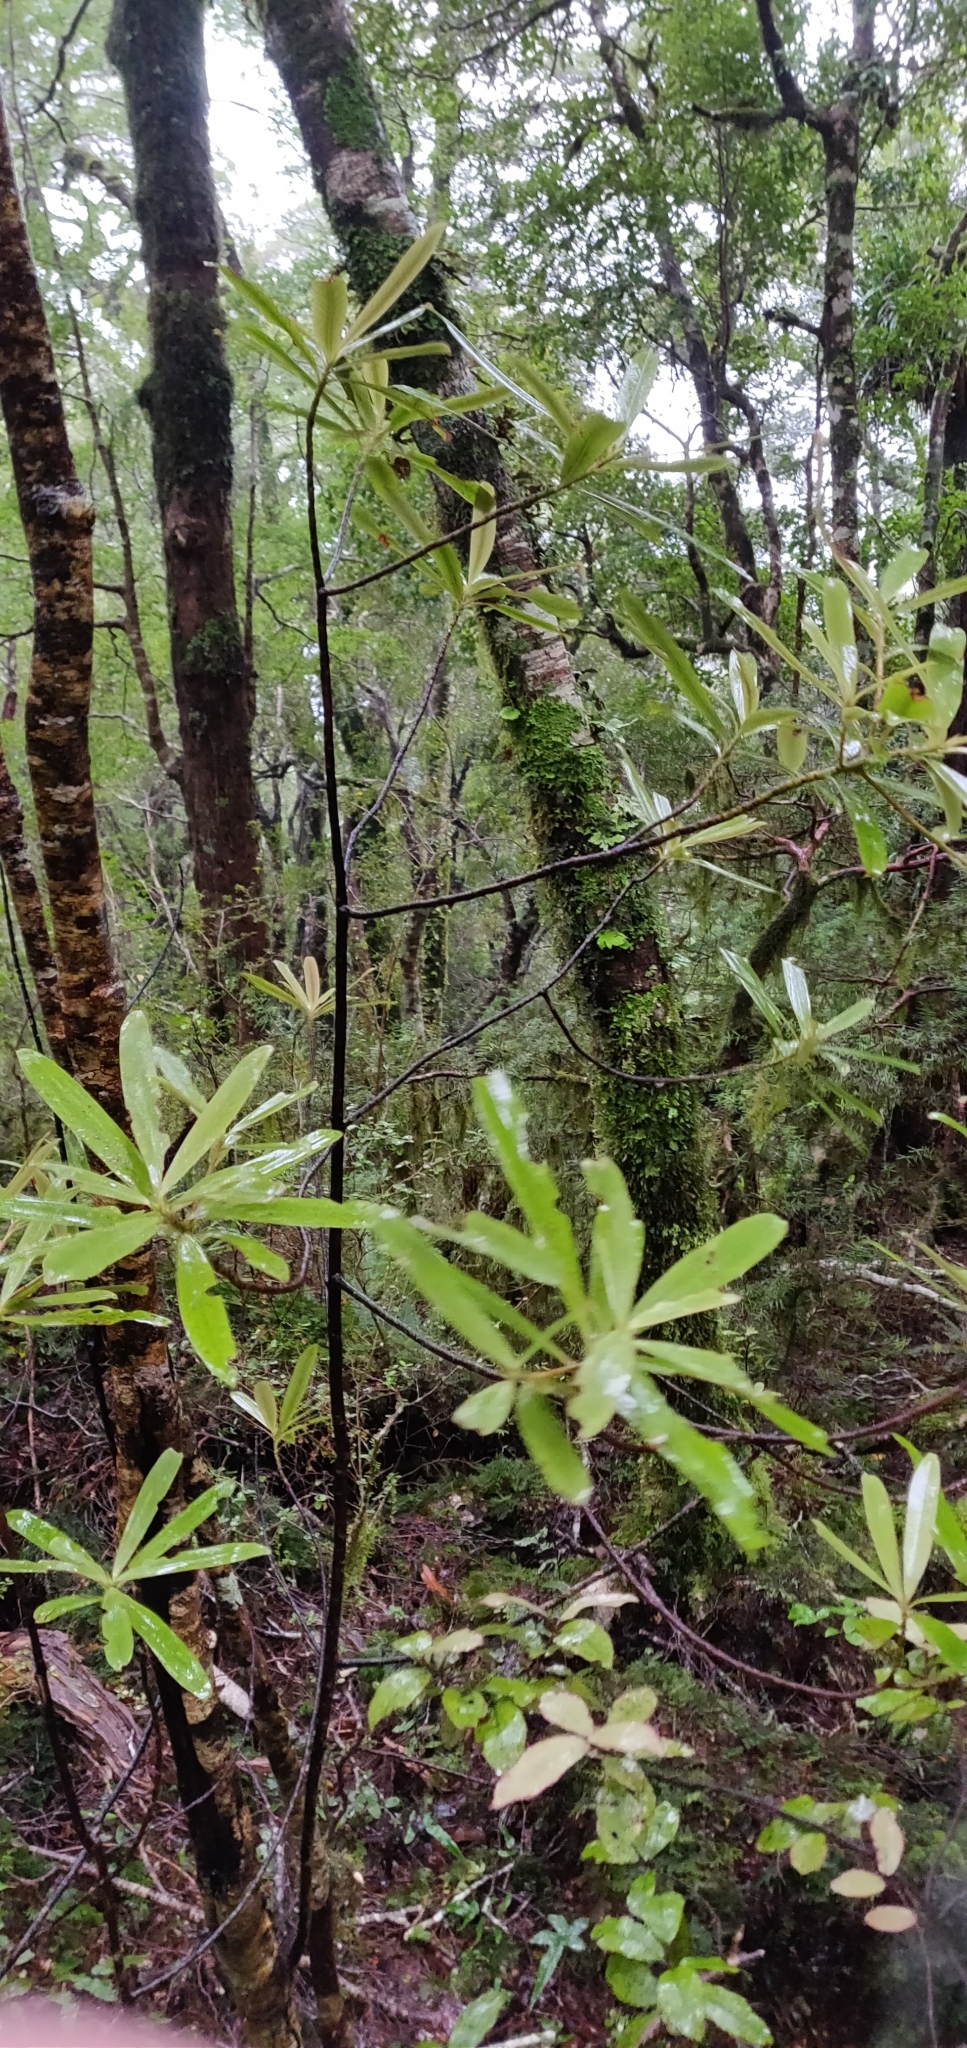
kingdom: Plantae
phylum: Tracheophyta
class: Magnoliopsida
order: Ericales
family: Primulaceae
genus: Myrsine
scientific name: Myrsine salicina
